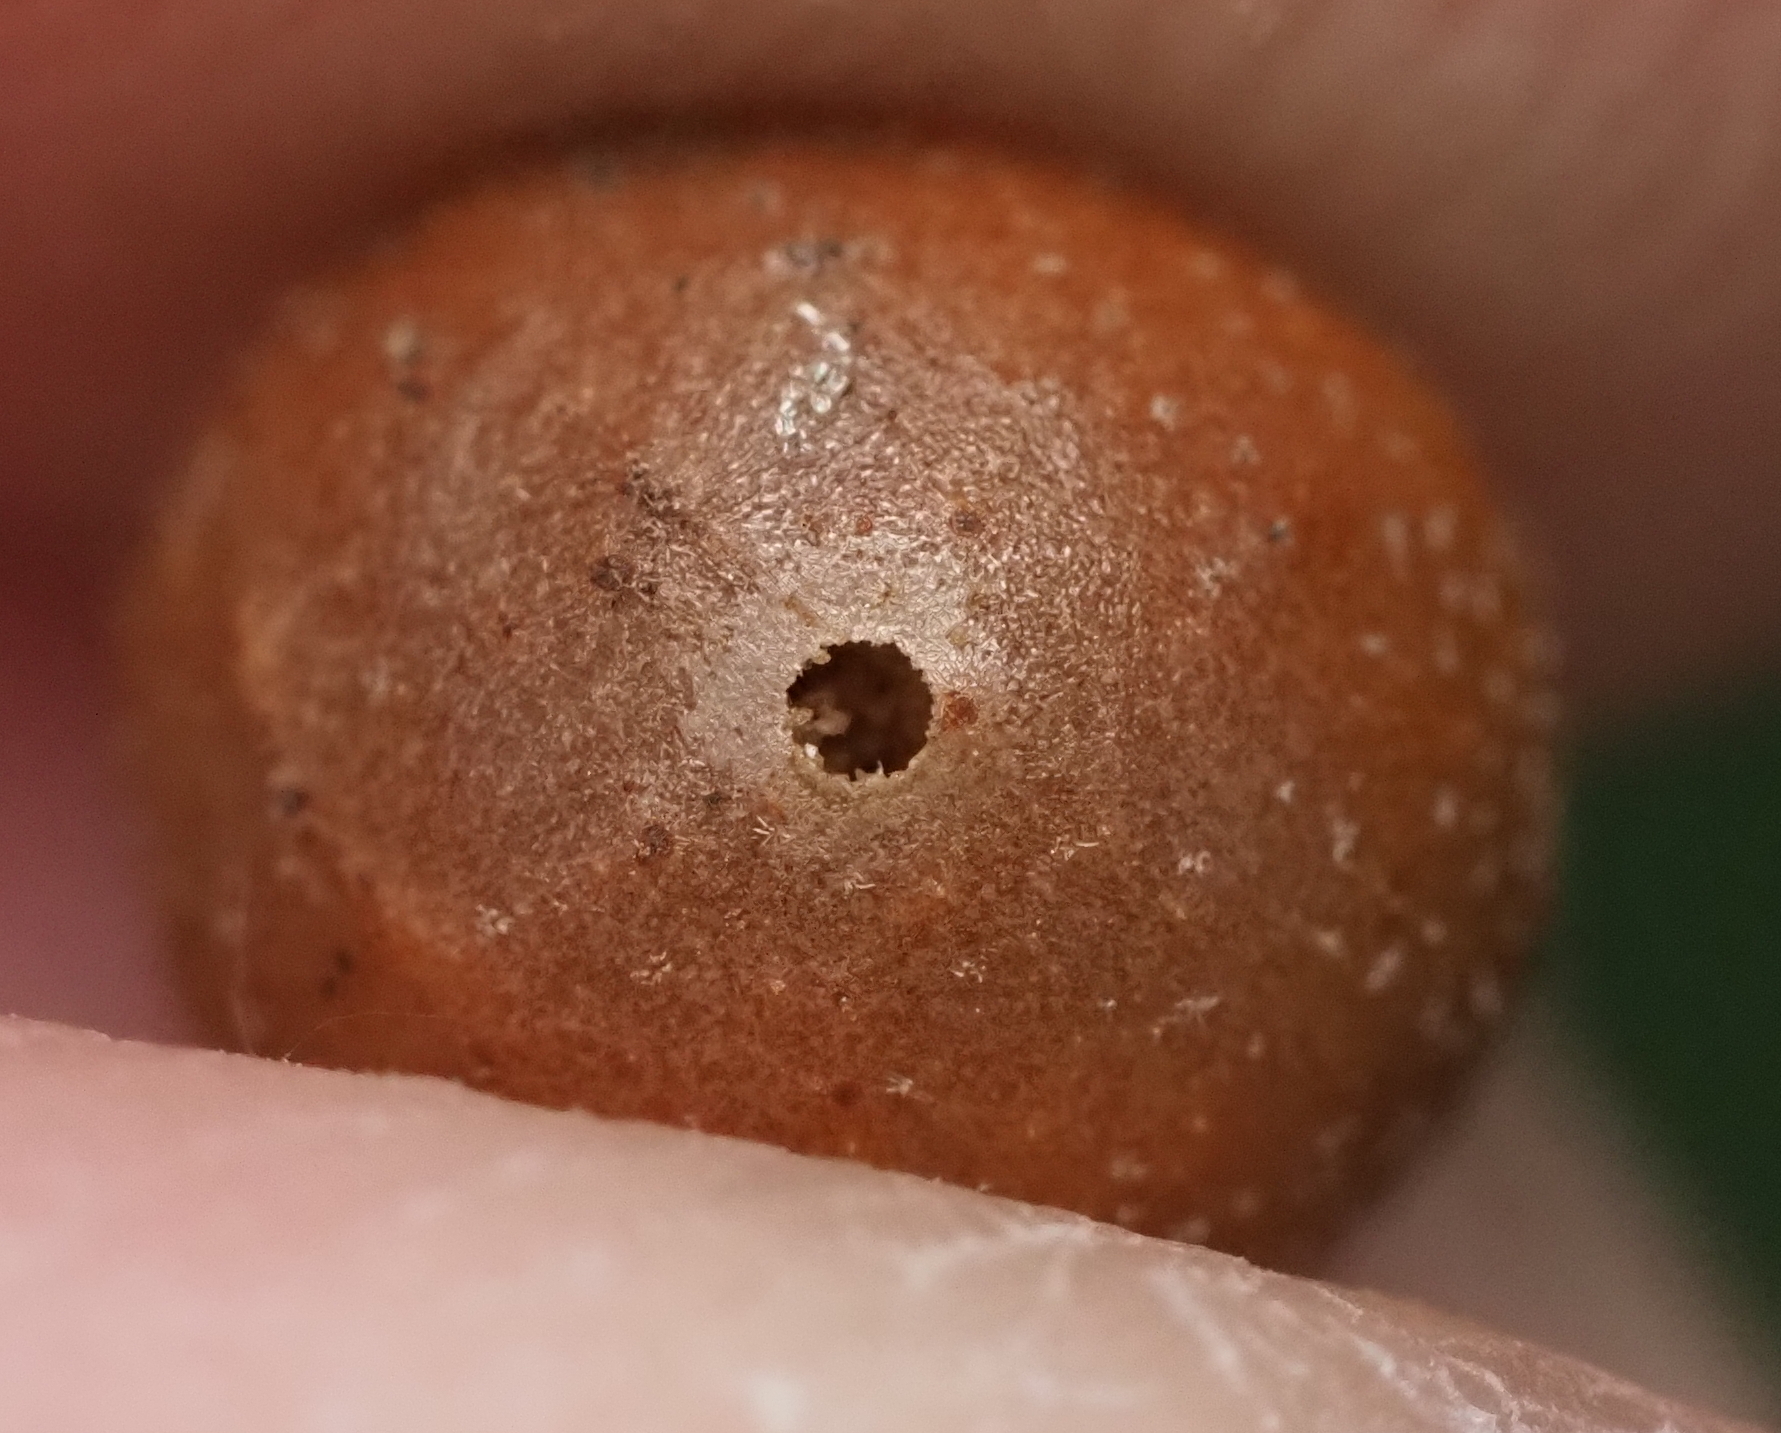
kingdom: Animalia
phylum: Arthropoda
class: Insecta
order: Hymenoptera
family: Cynipidae
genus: Belonocnema
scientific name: Belonocnema kinseyi
